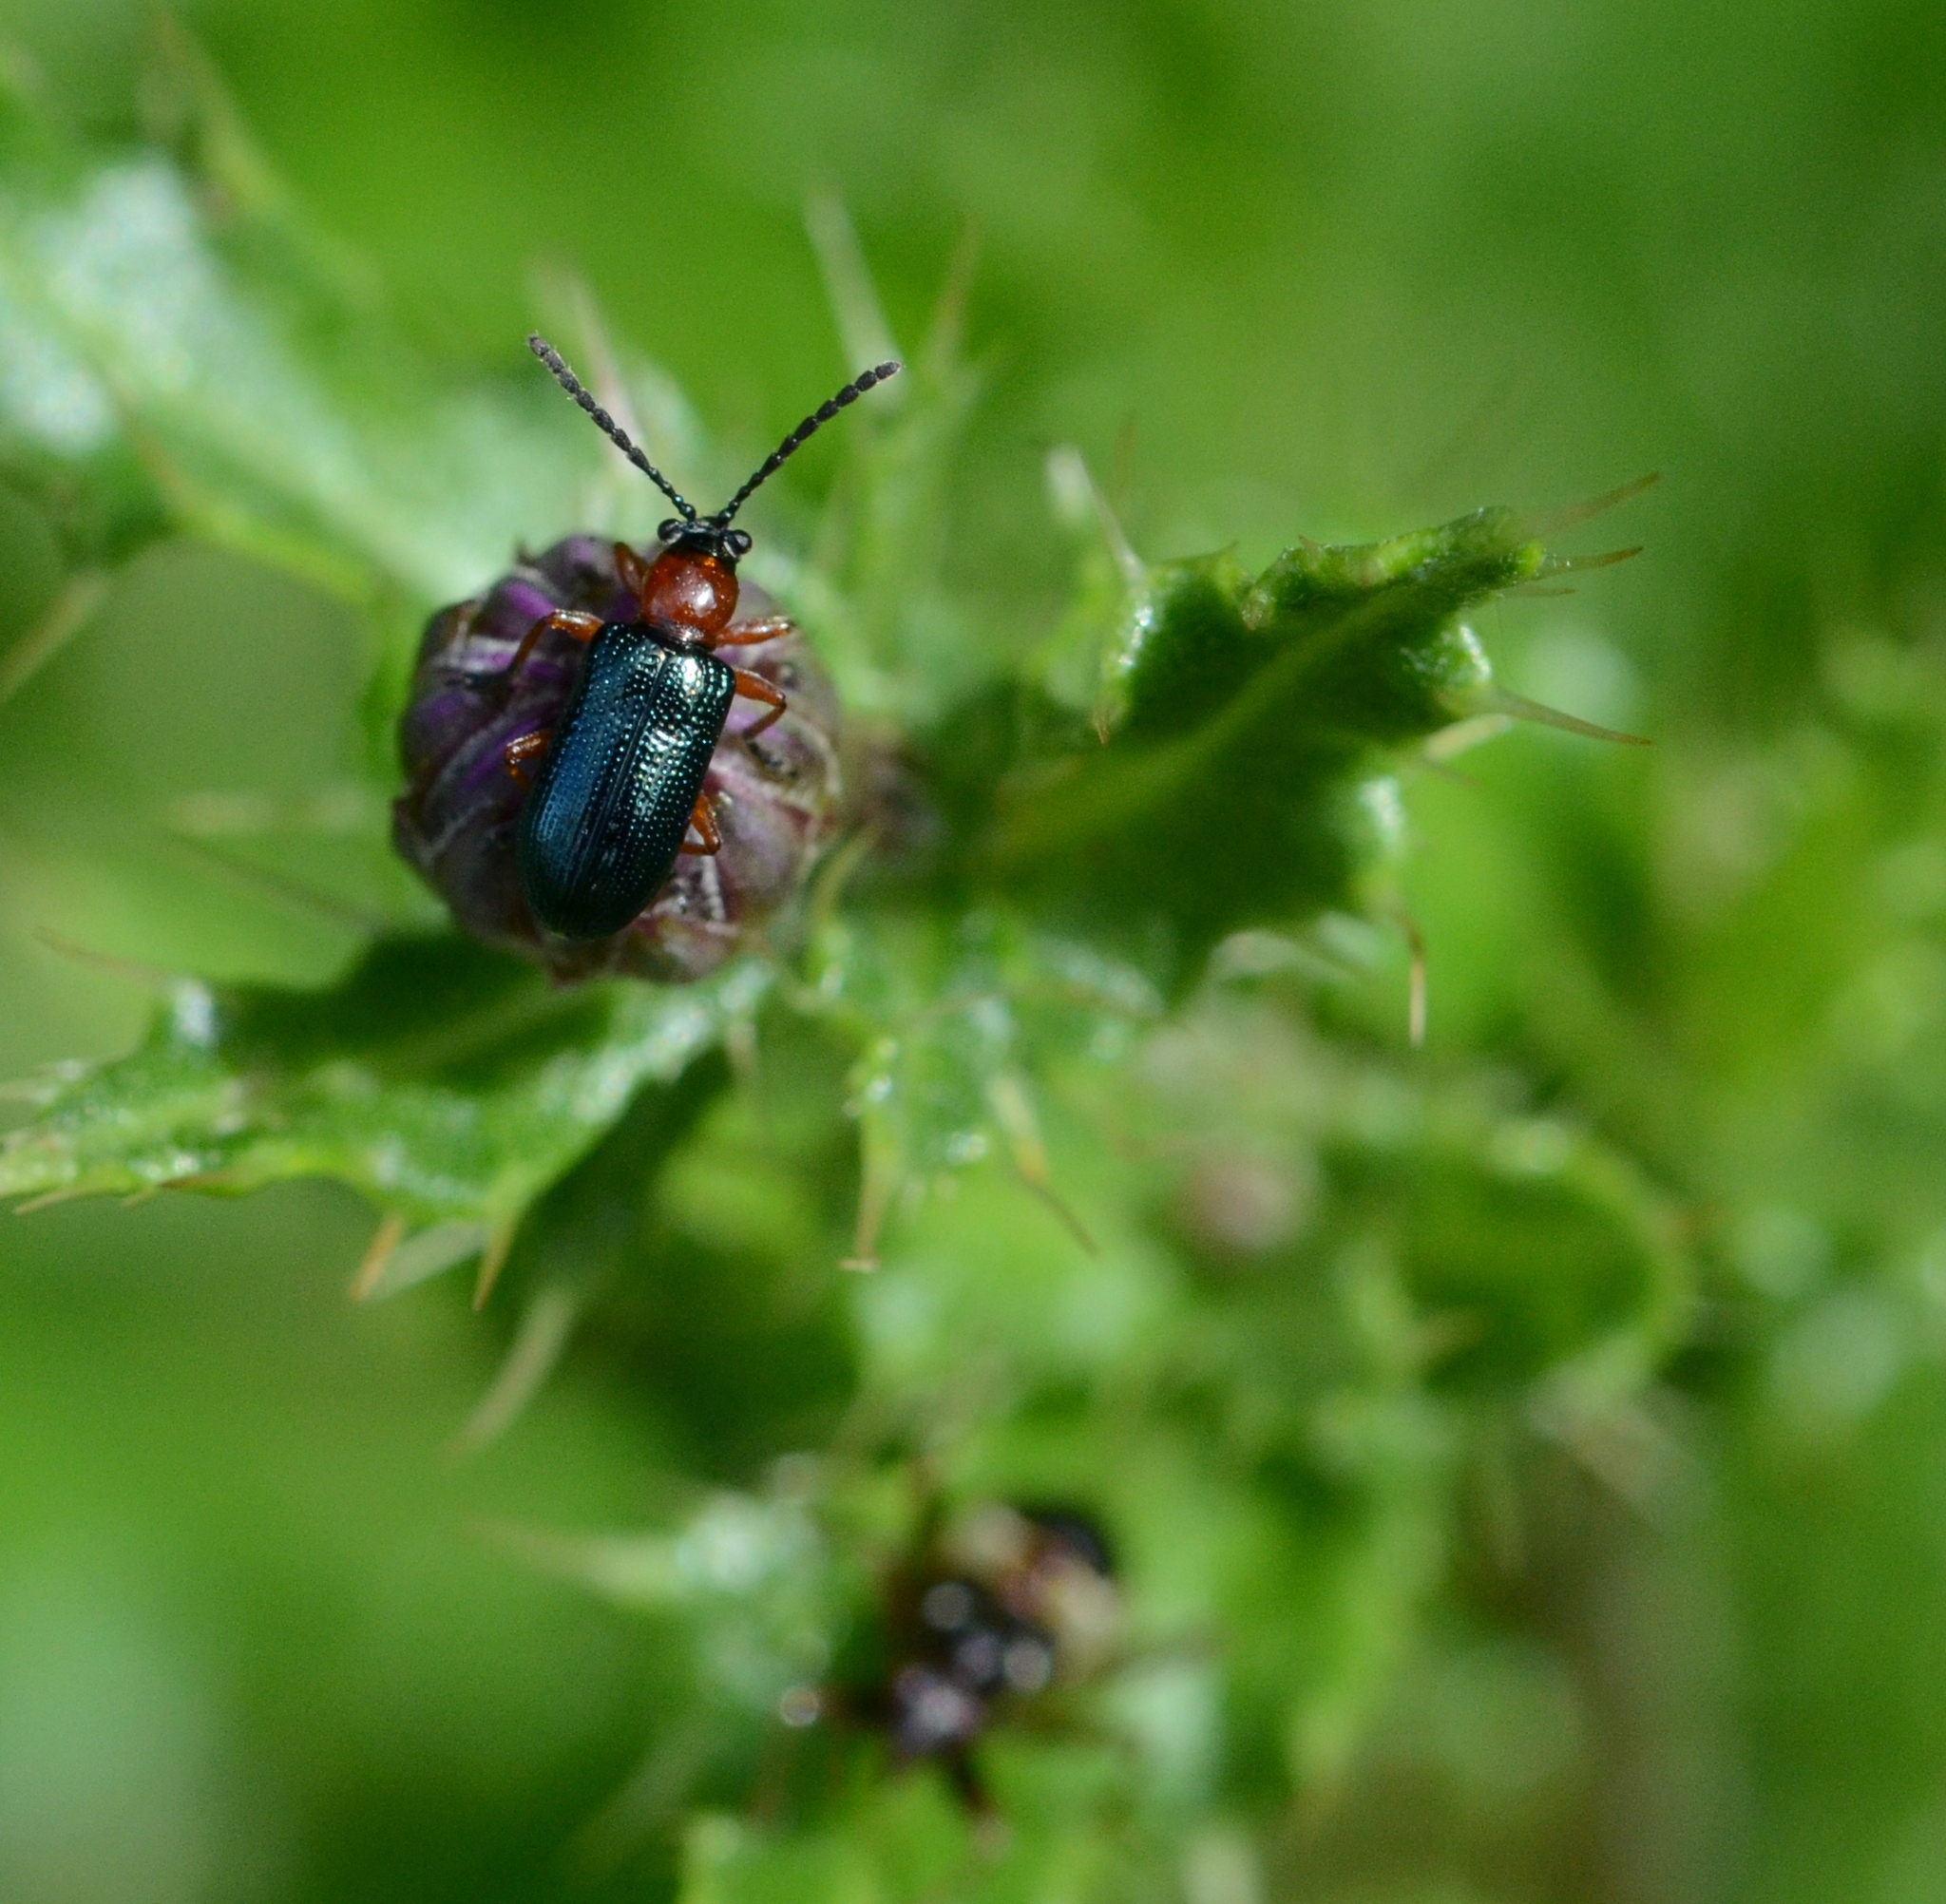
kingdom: Animalia
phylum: Arthropoda
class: Insecta
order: Coleoptera
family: Chrysomelidae
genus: Oulema
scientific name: Oulema
